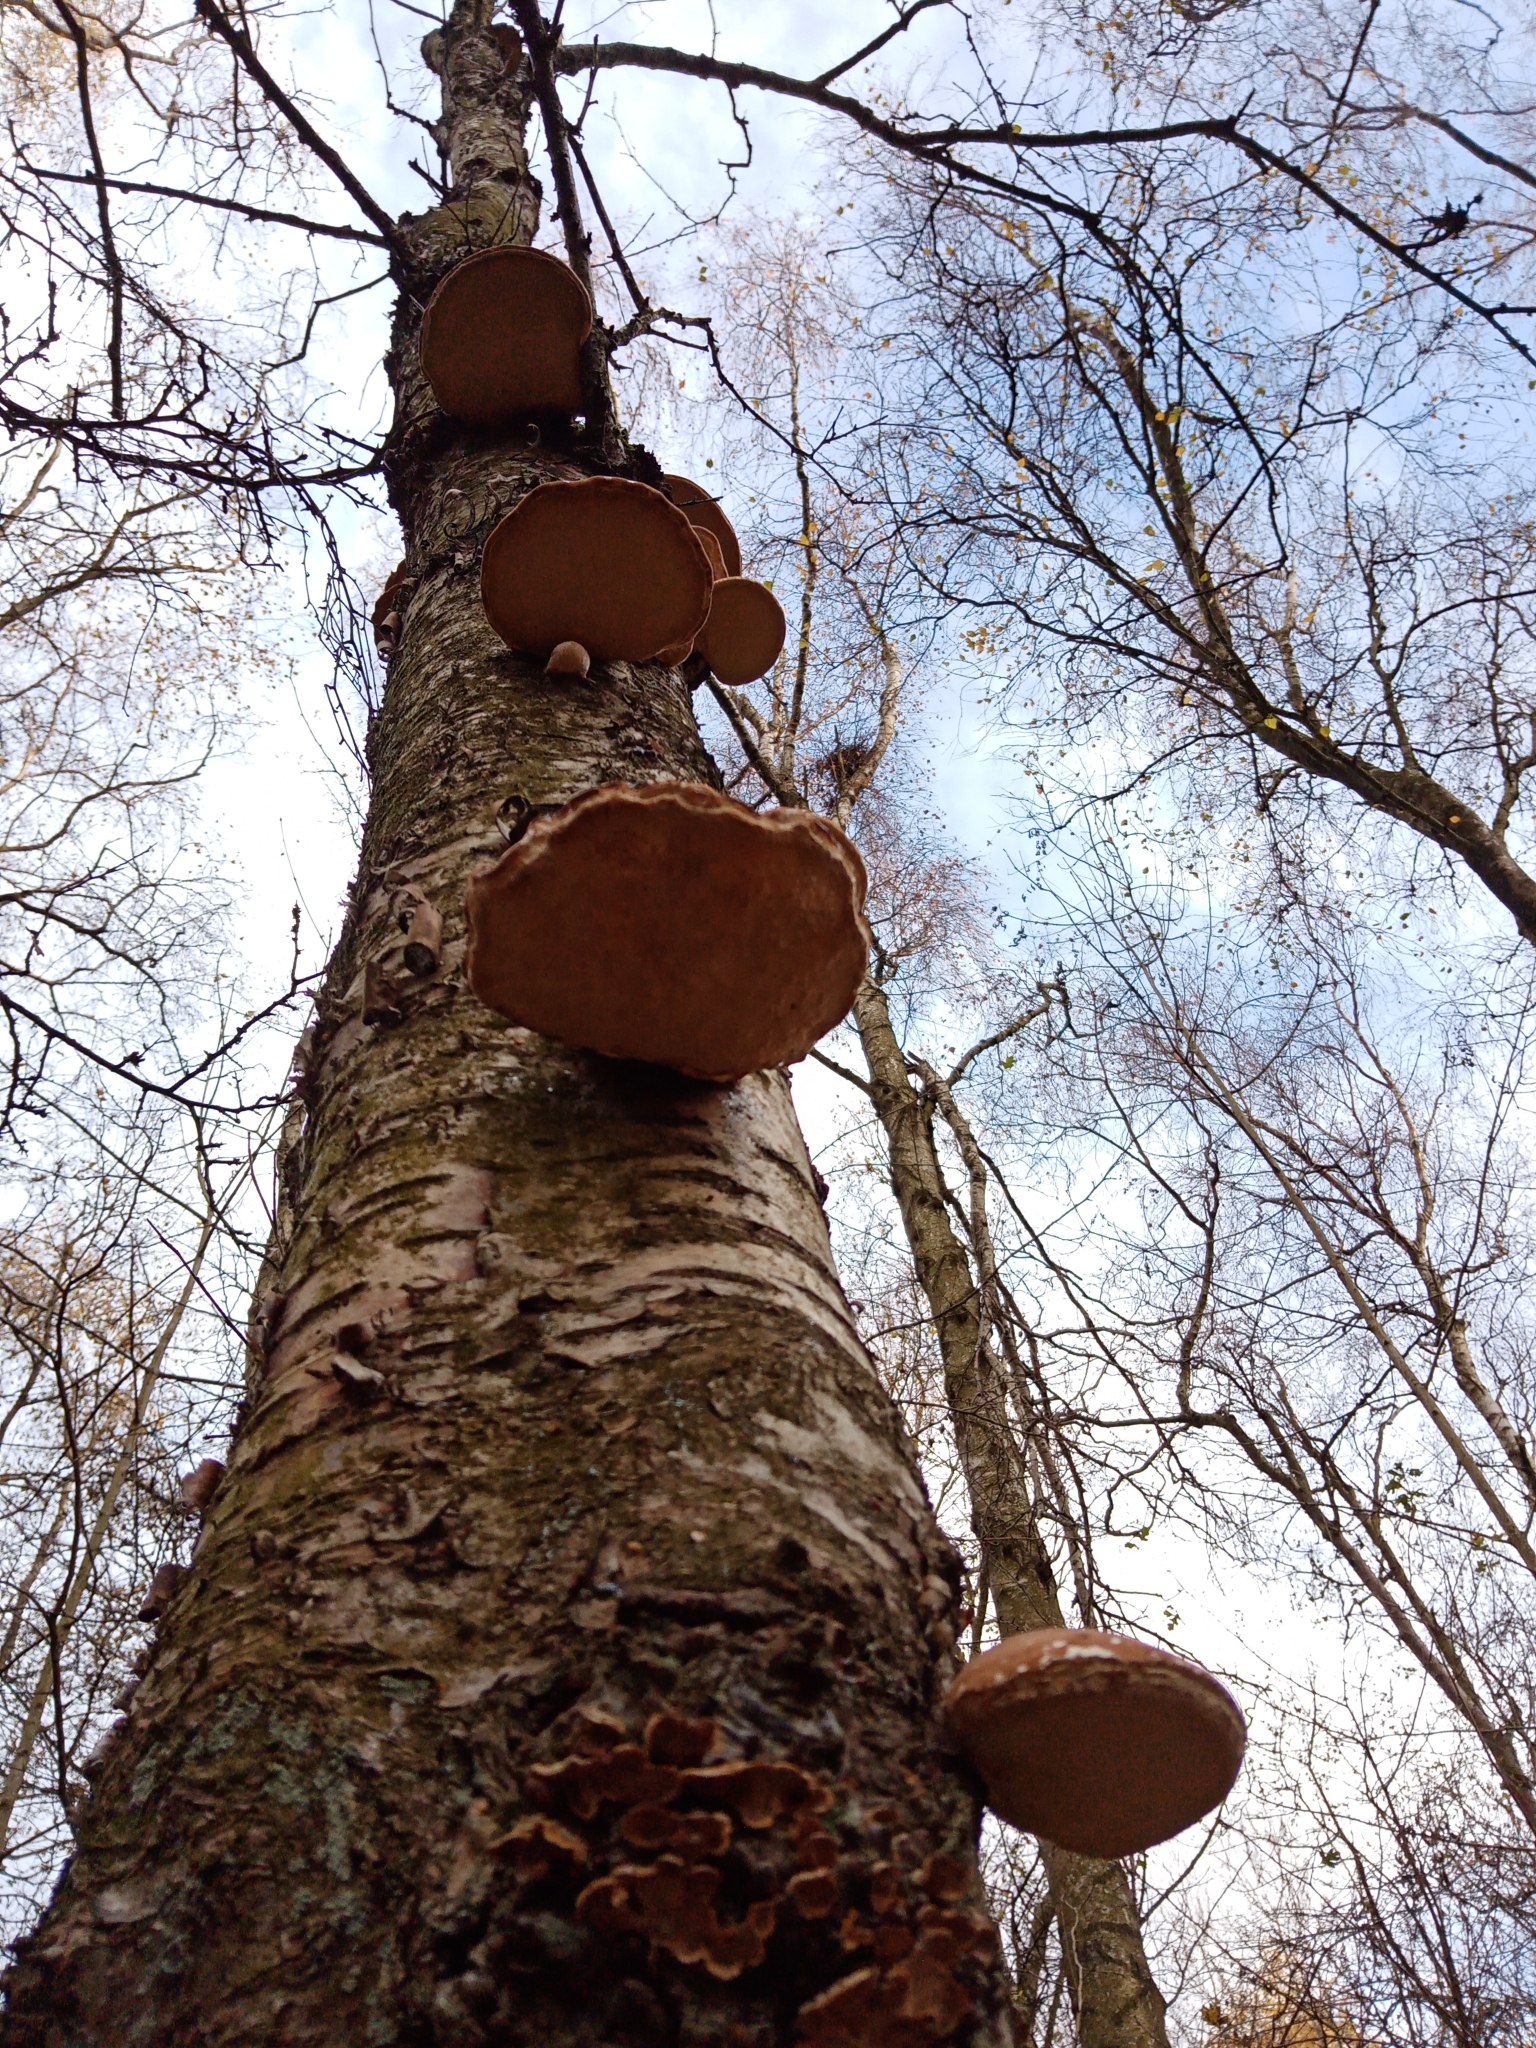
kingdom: Fungi
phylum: Basidiomycota
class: Agaricomycetes
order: Polyporales
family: Fomitopsidaceae
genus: Fomitopsis
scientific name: Fomitopsis betulina
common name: Birch polypore
